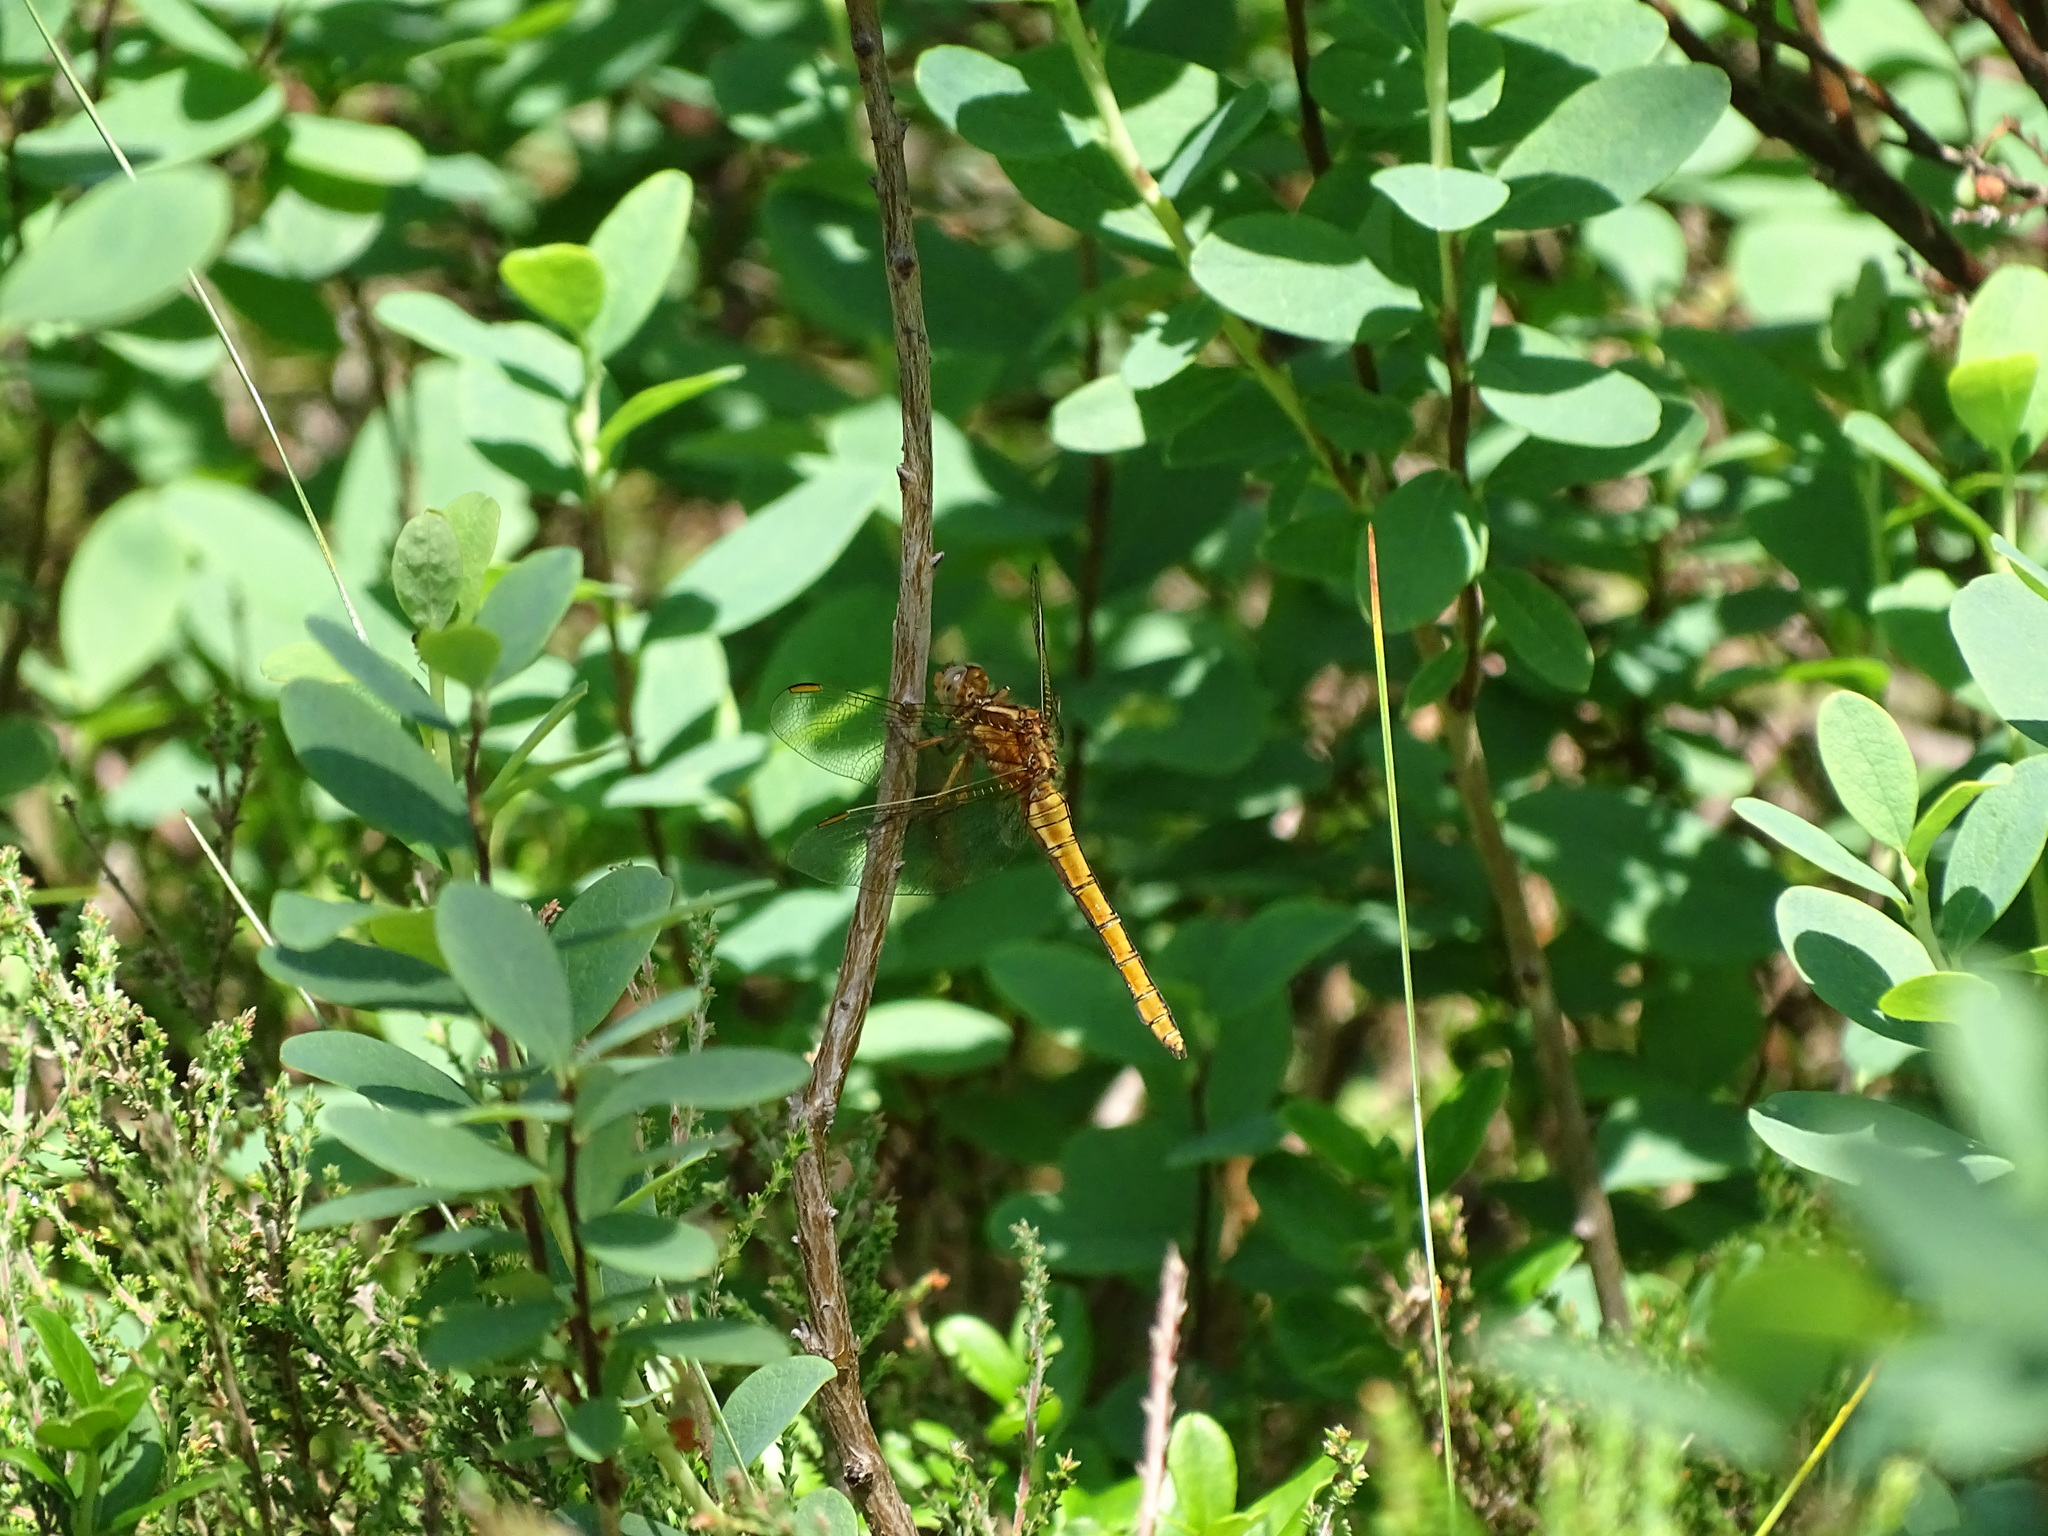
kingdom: Animalia
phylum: Arthropoda
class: Insecta
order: Odonata
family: Libellulidae
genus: Orthetrum
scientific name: Orthetrum coerulescens
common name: Keeled skimmer
